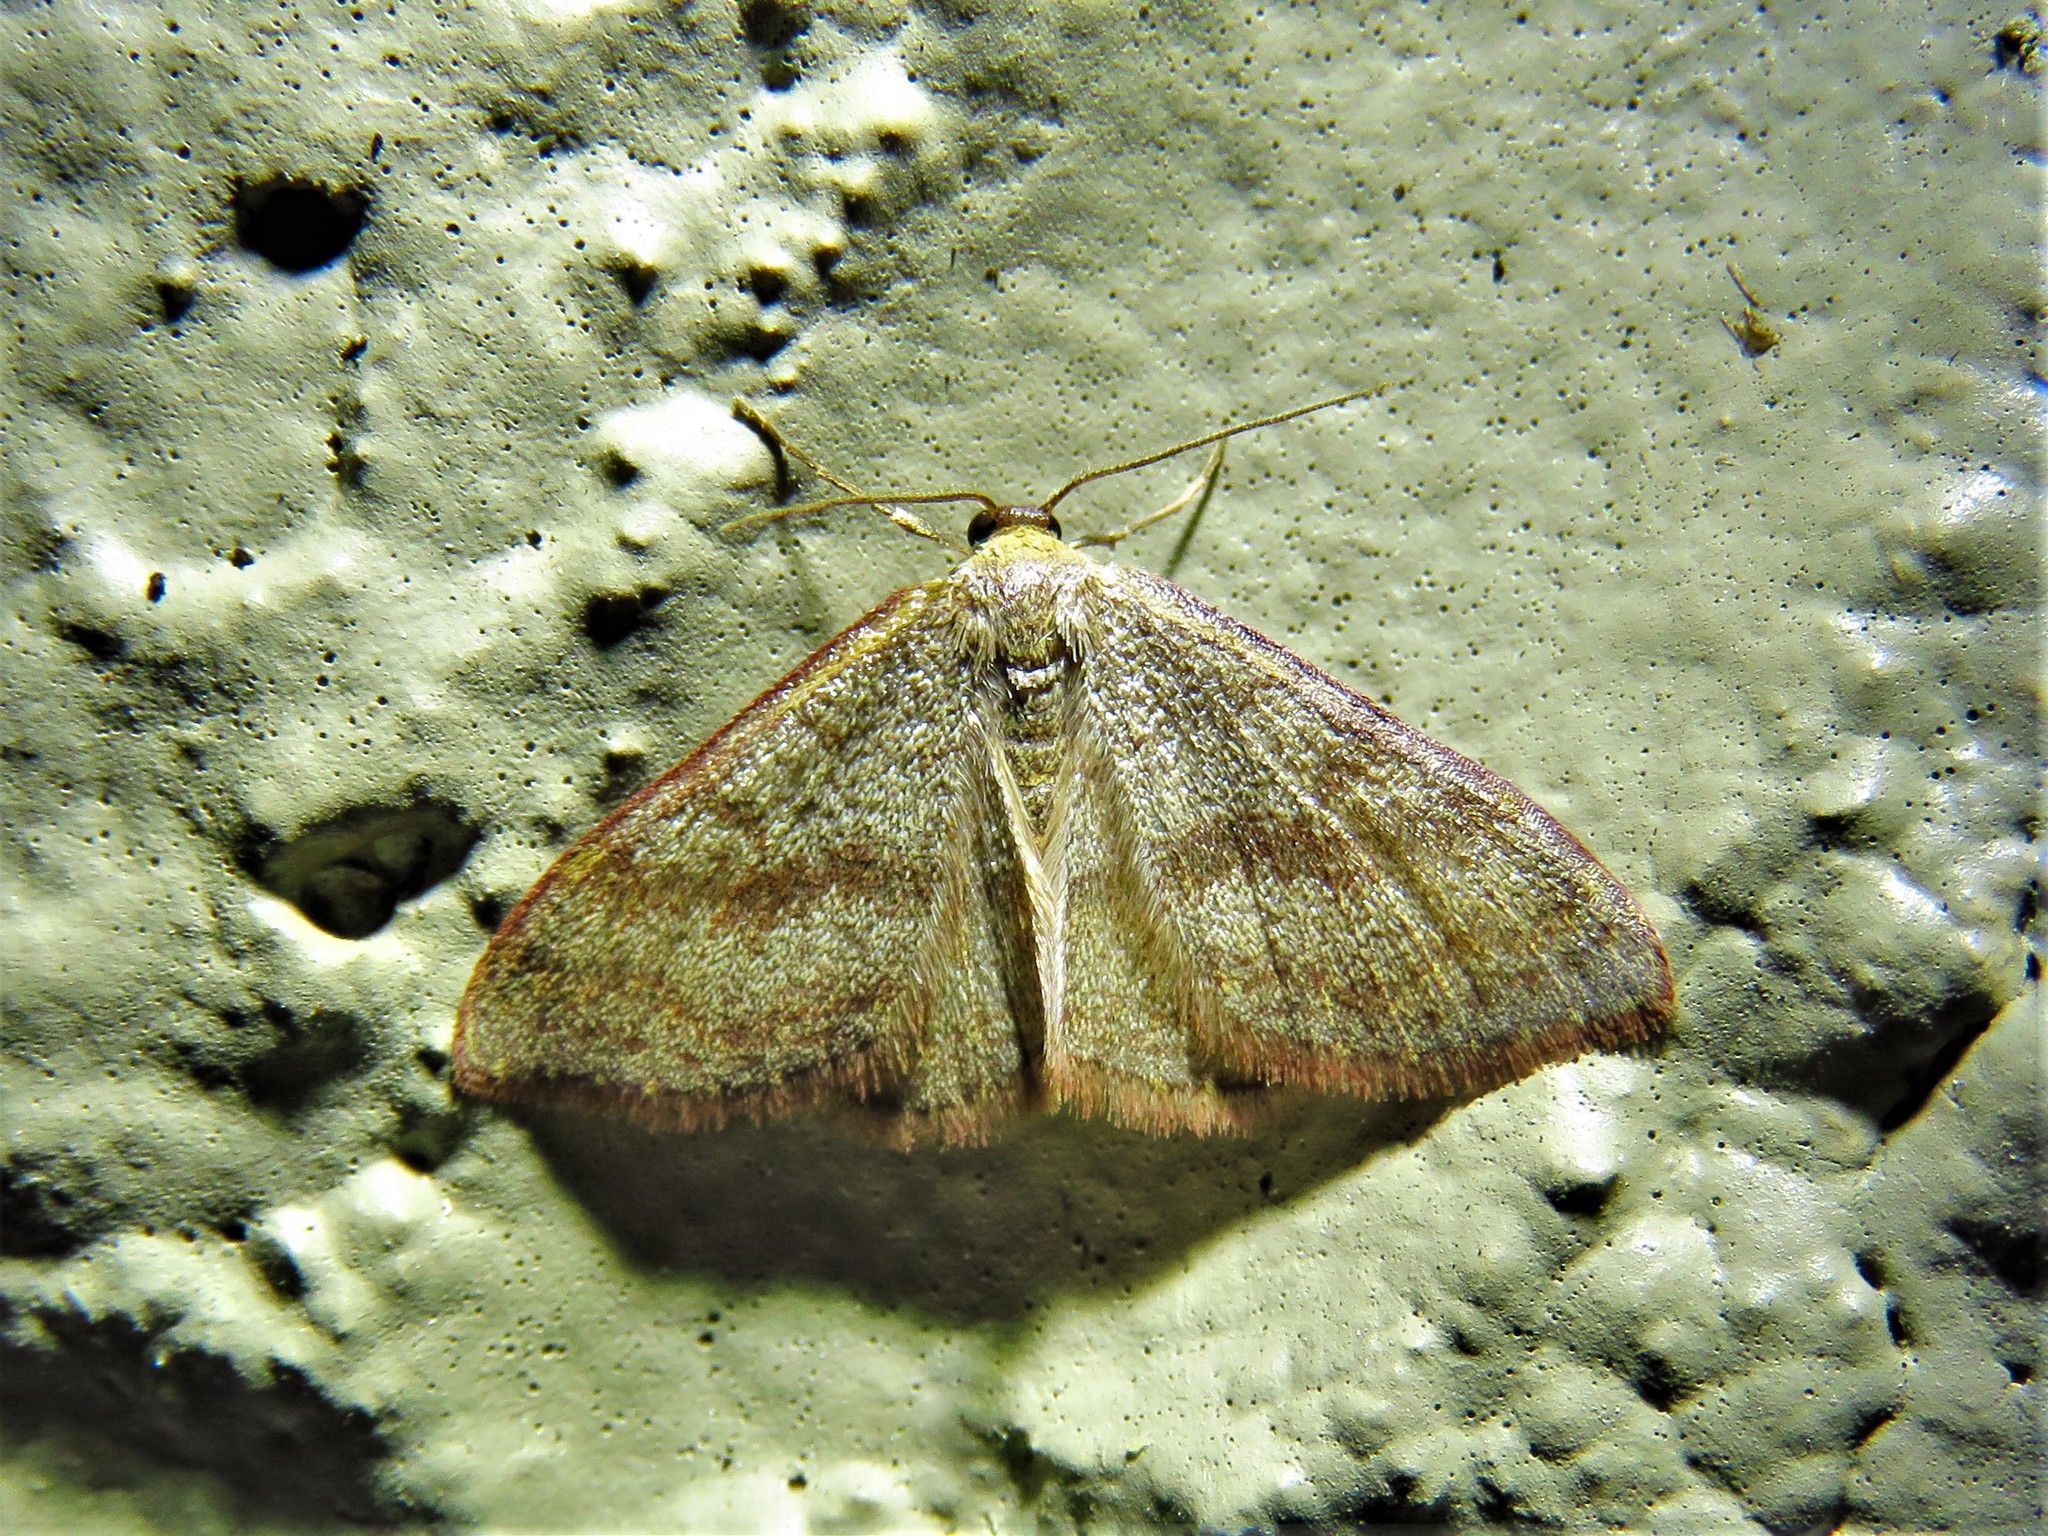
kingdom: Animalia
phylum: Arthropoda
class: Insecta
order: Lepidoptera
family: Geometridae
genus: Leptostales
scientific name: Leptostales pannaria
